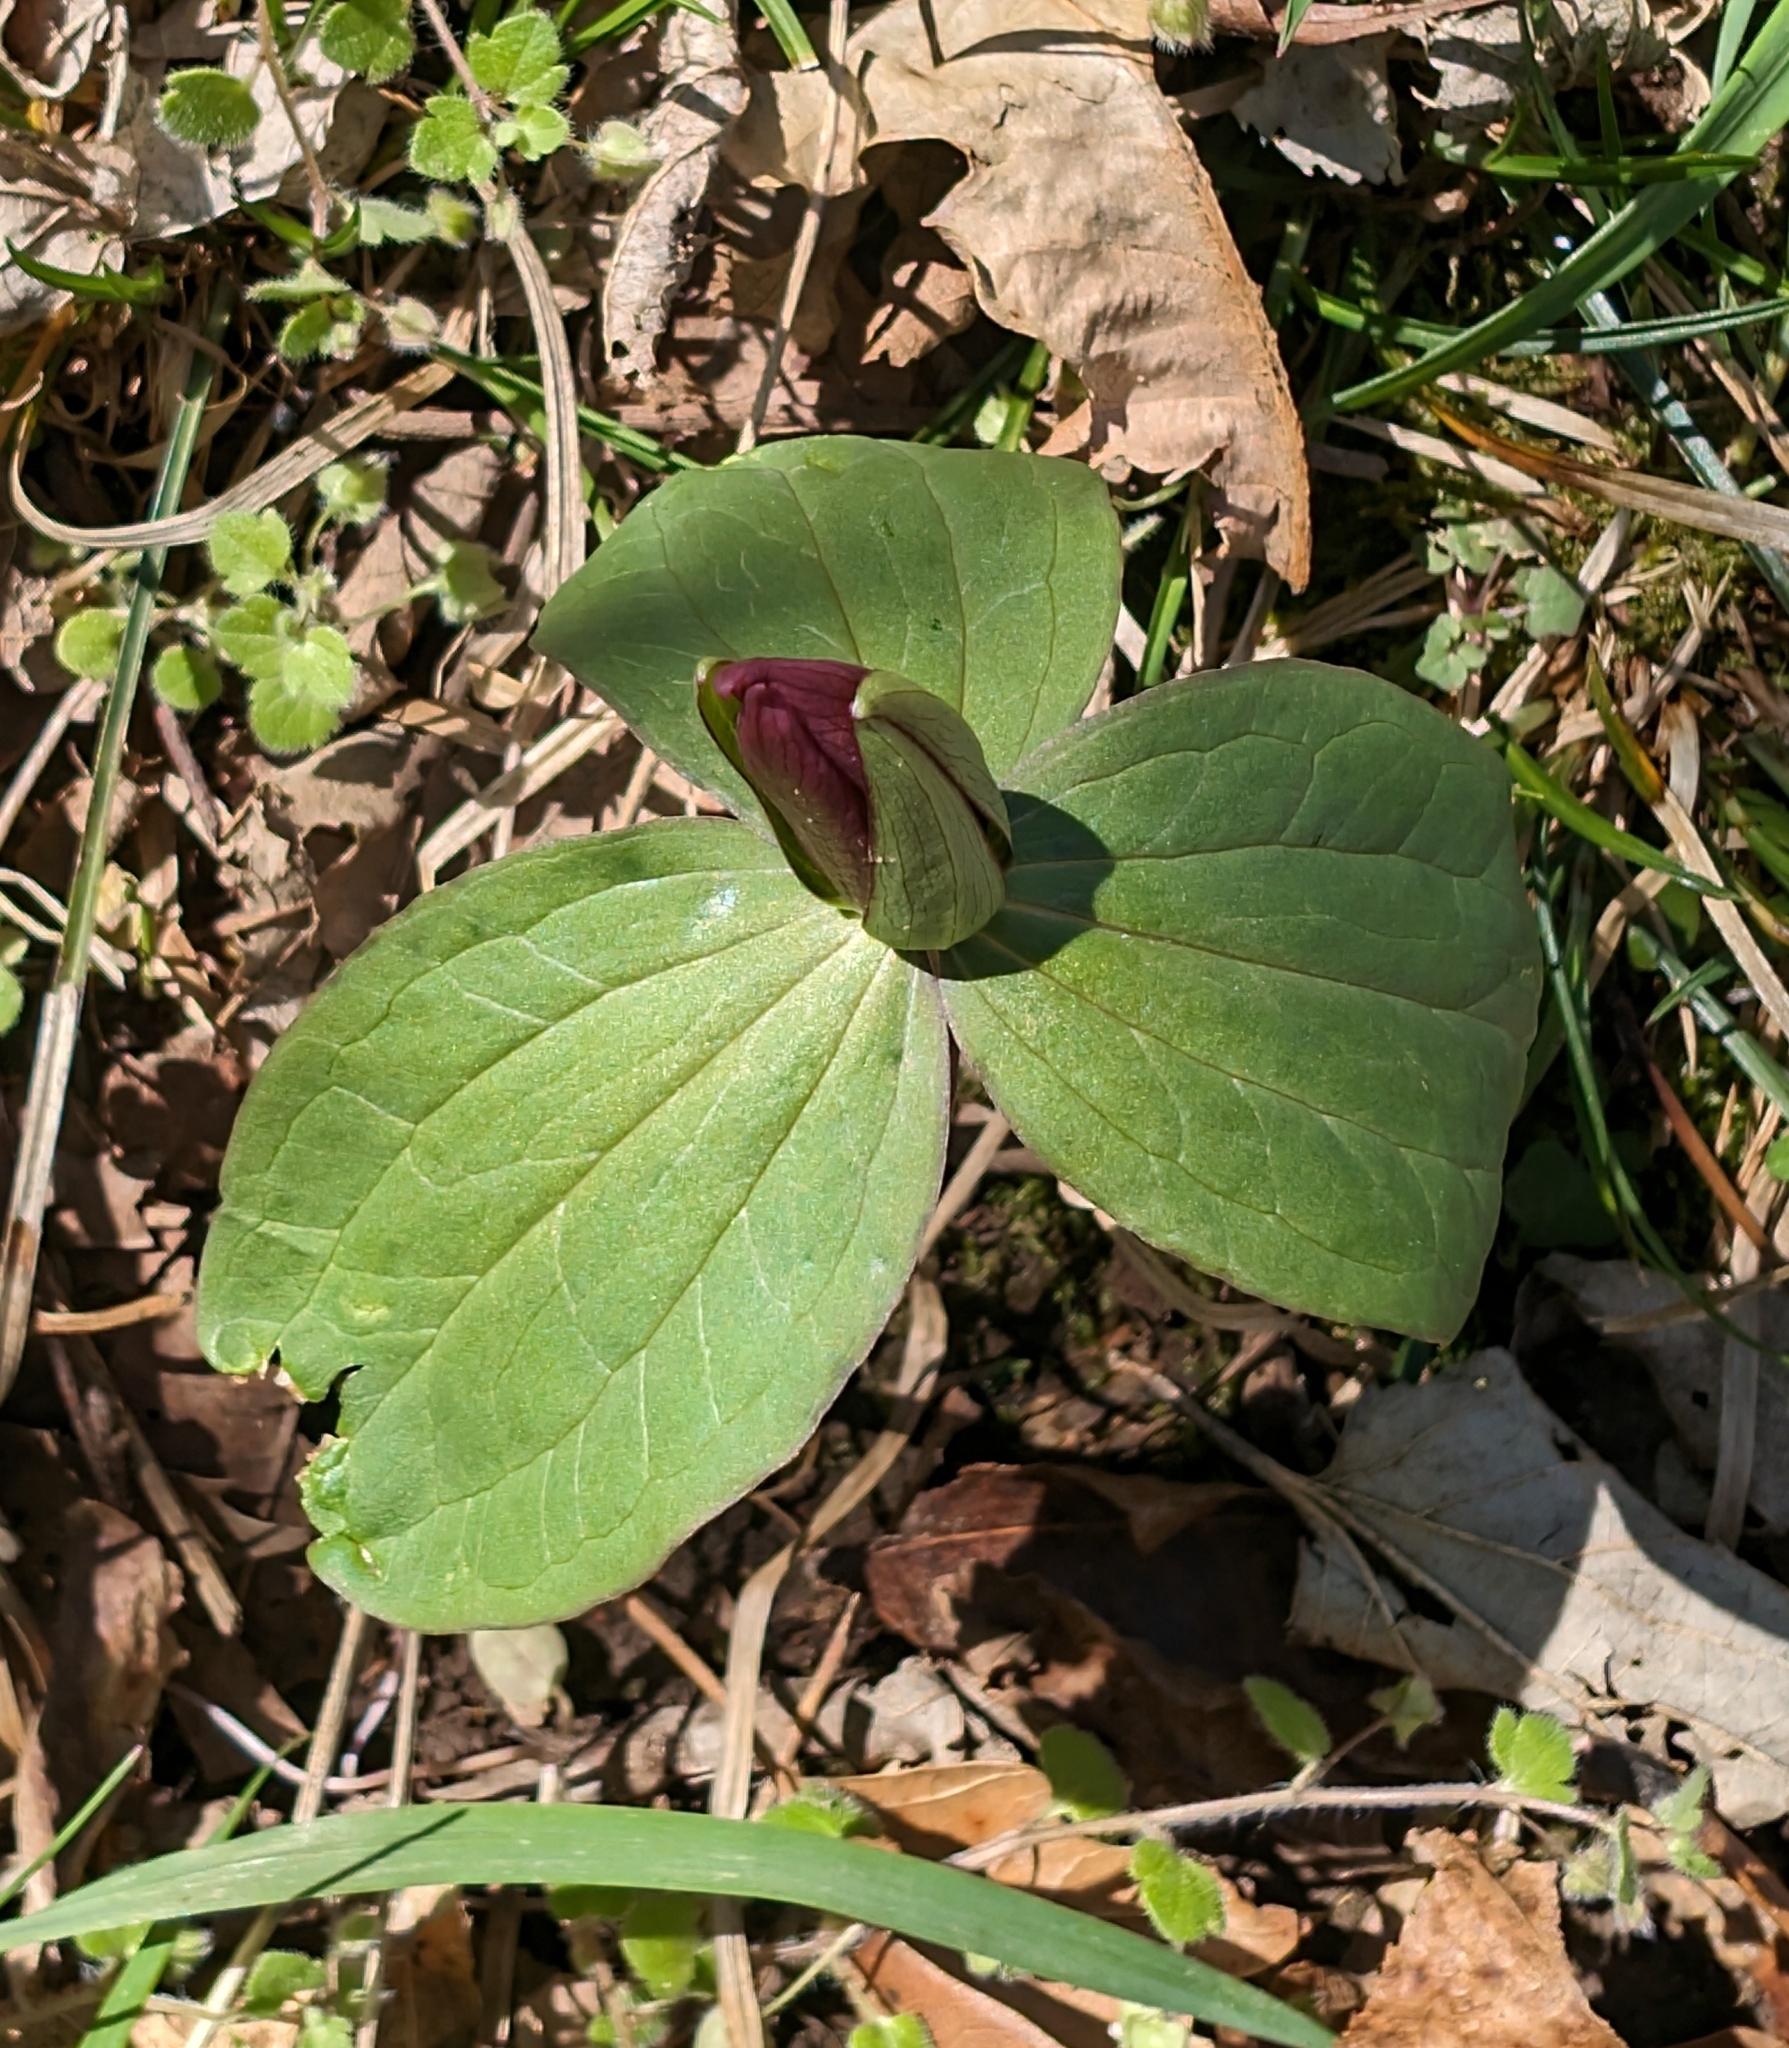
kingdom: Plantae
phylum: Tracheophyta
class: Liliopsida
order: Liliales
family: Melanthiaceae
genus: Trillium
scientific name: Trillium sessile
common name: Sessile trillium
